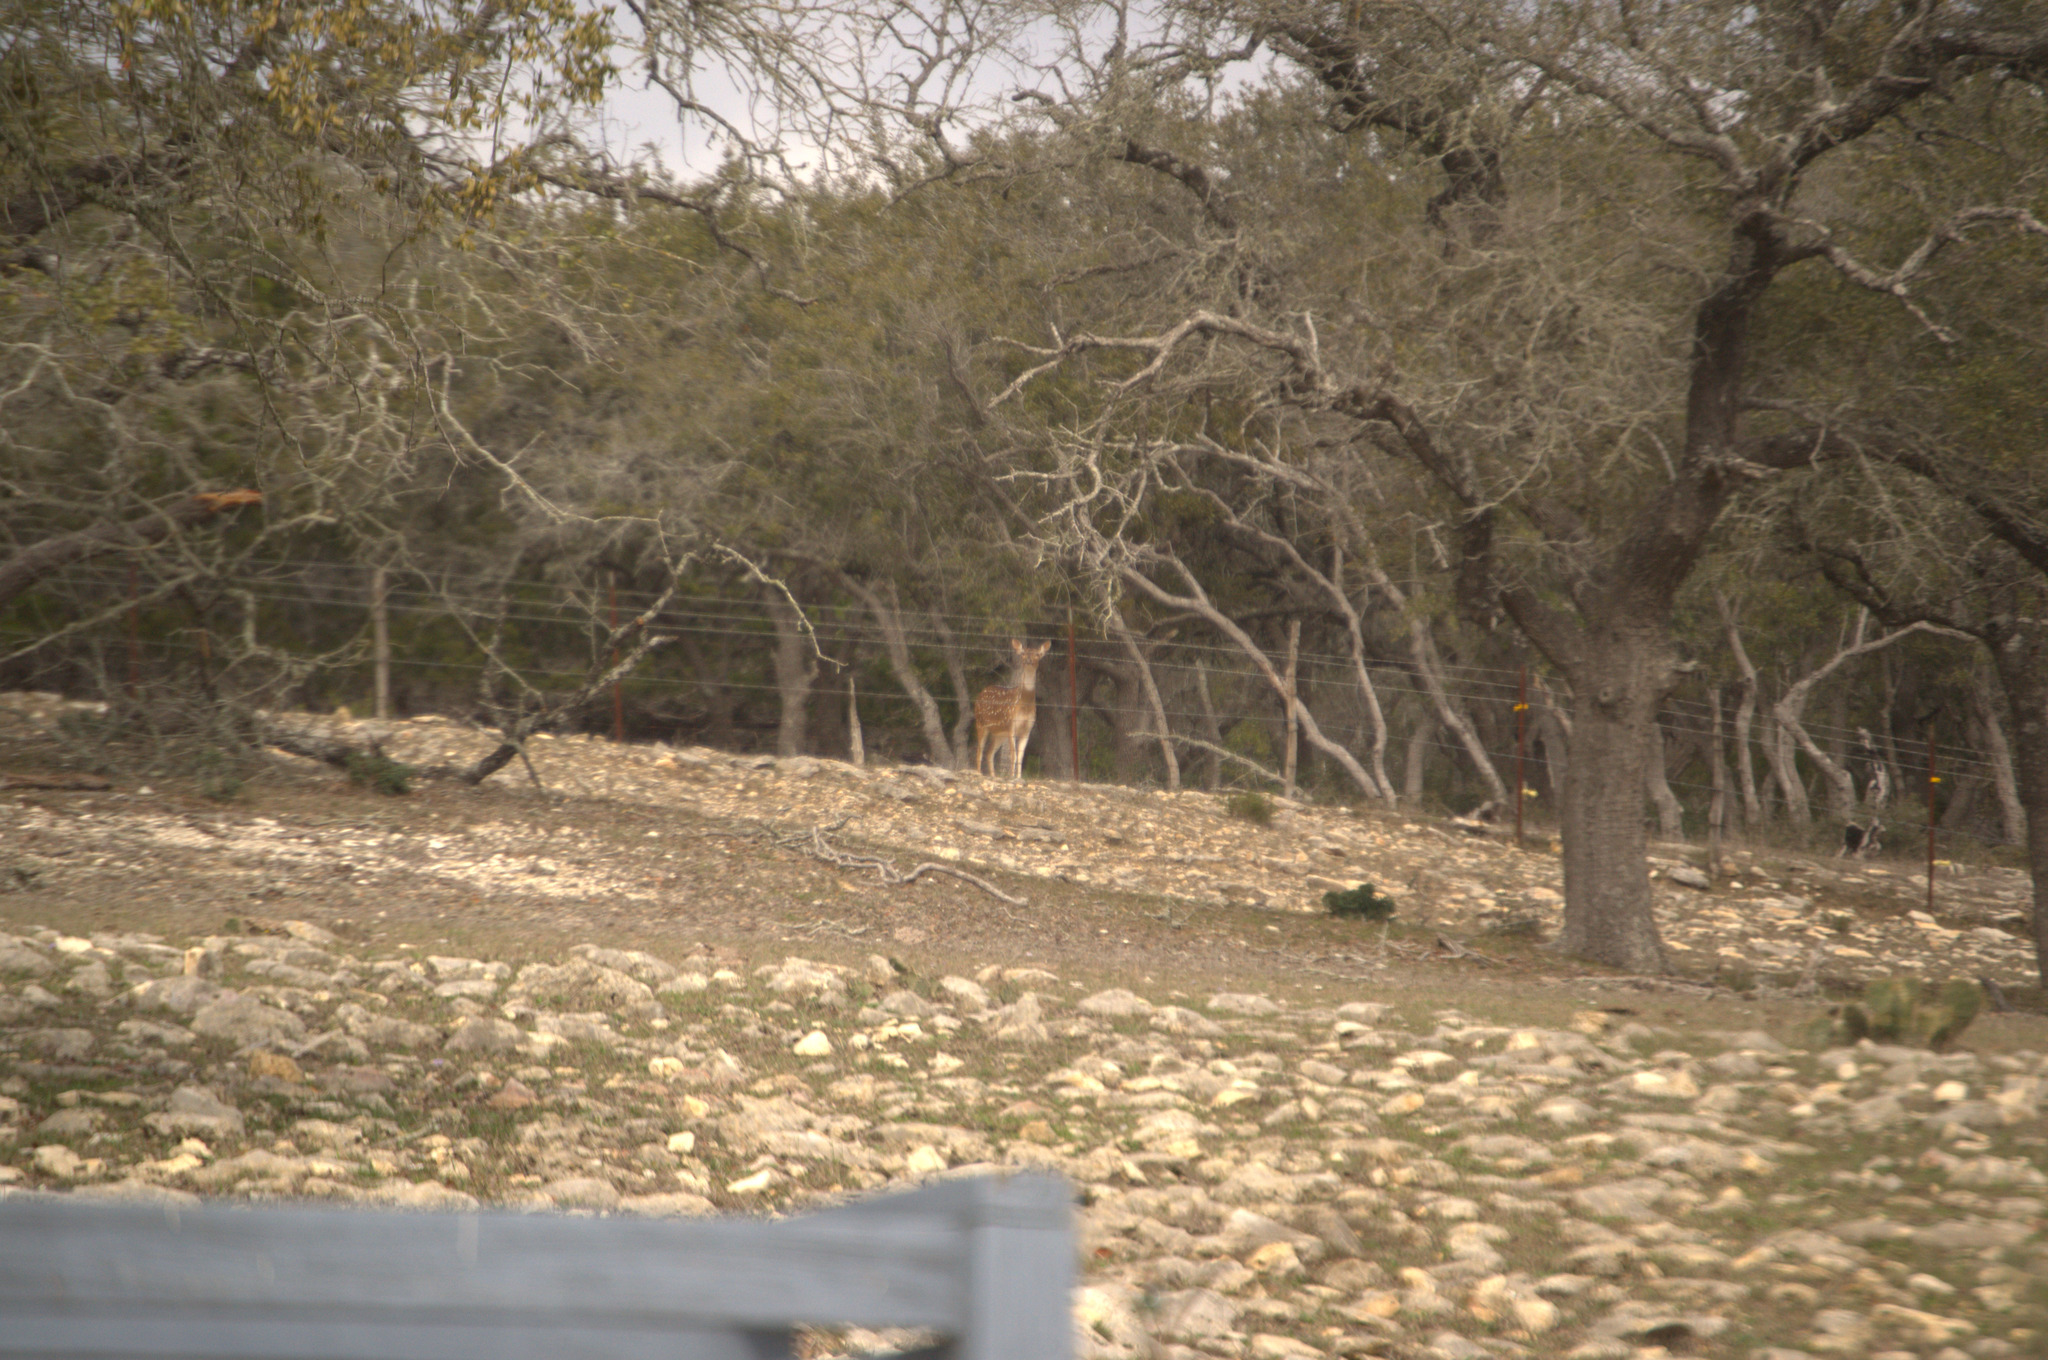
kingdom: Animalia
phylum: Chordata
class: Mammalia
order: Artiodactyla
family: Cervidae
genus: Axis
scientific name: Axis axis
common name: Chital
